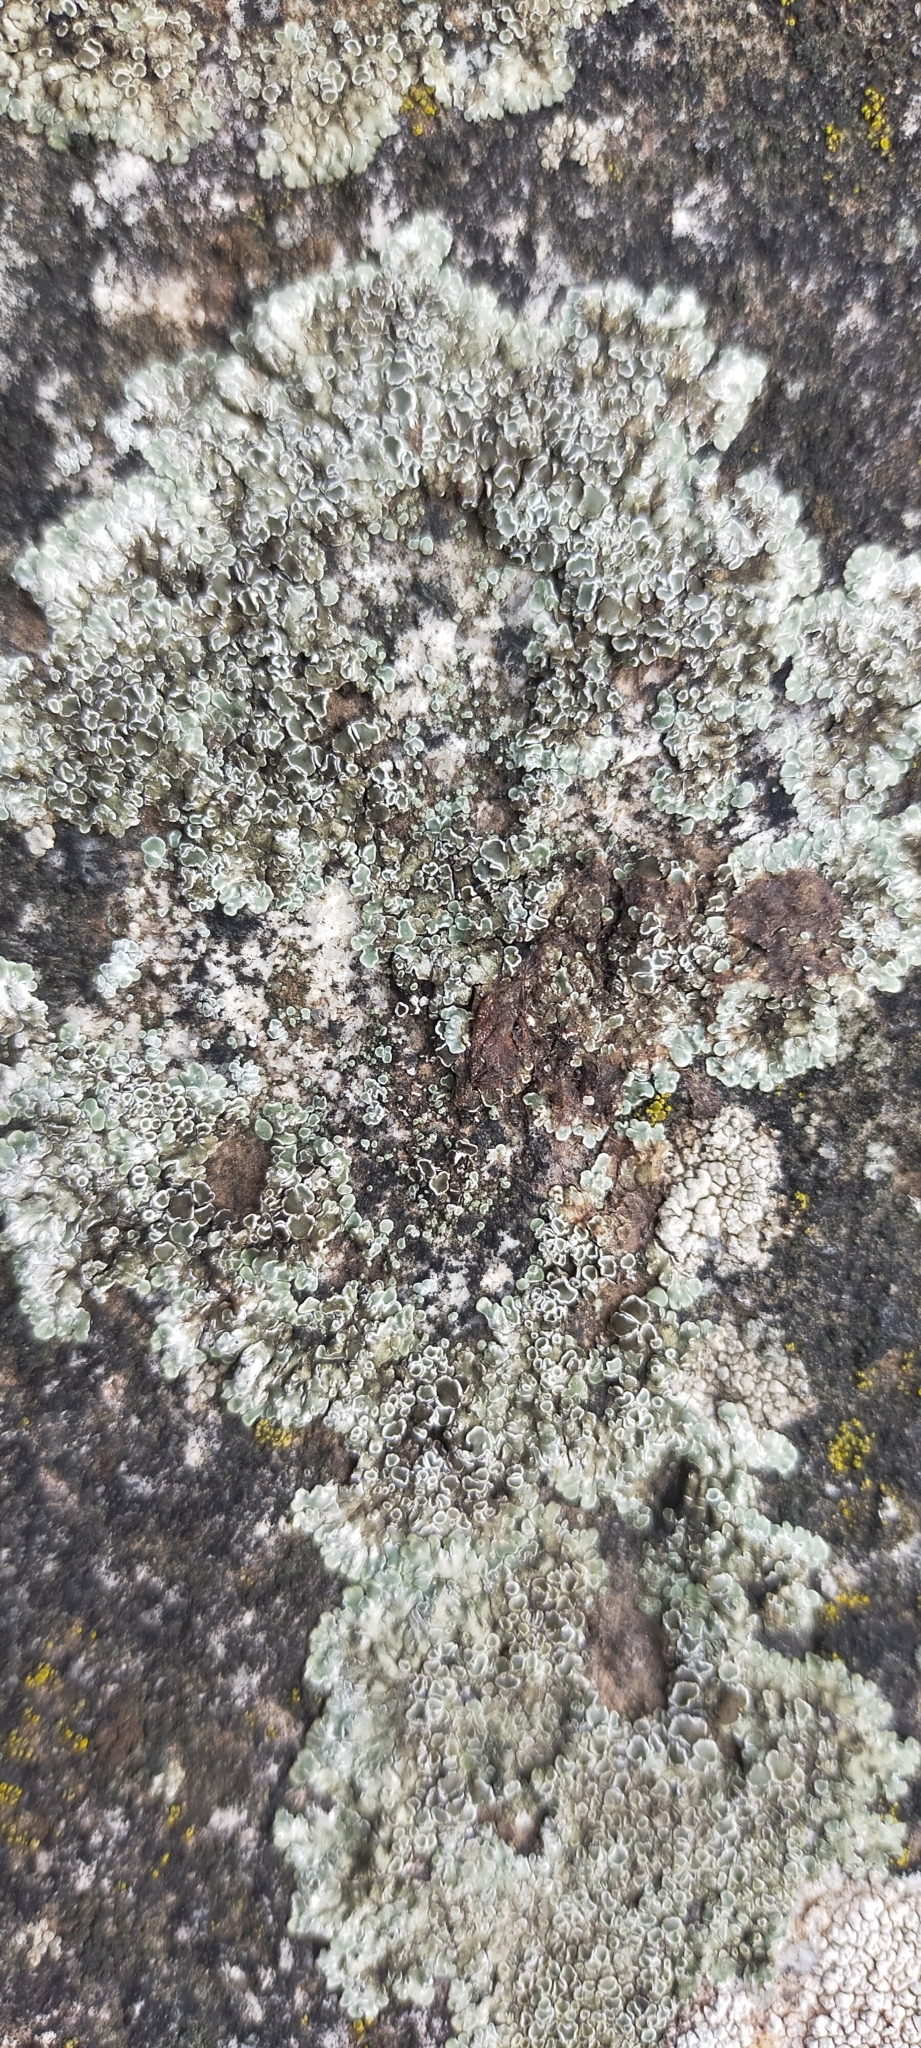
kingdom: Fungi
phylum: Ascomycota
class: Lecanoromycetes
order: Lecanorales
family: Lecanoraceae
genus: Protoparmeliopsis
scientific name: Protoparmeliopsis muralis
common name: Stonewall rim lichen
